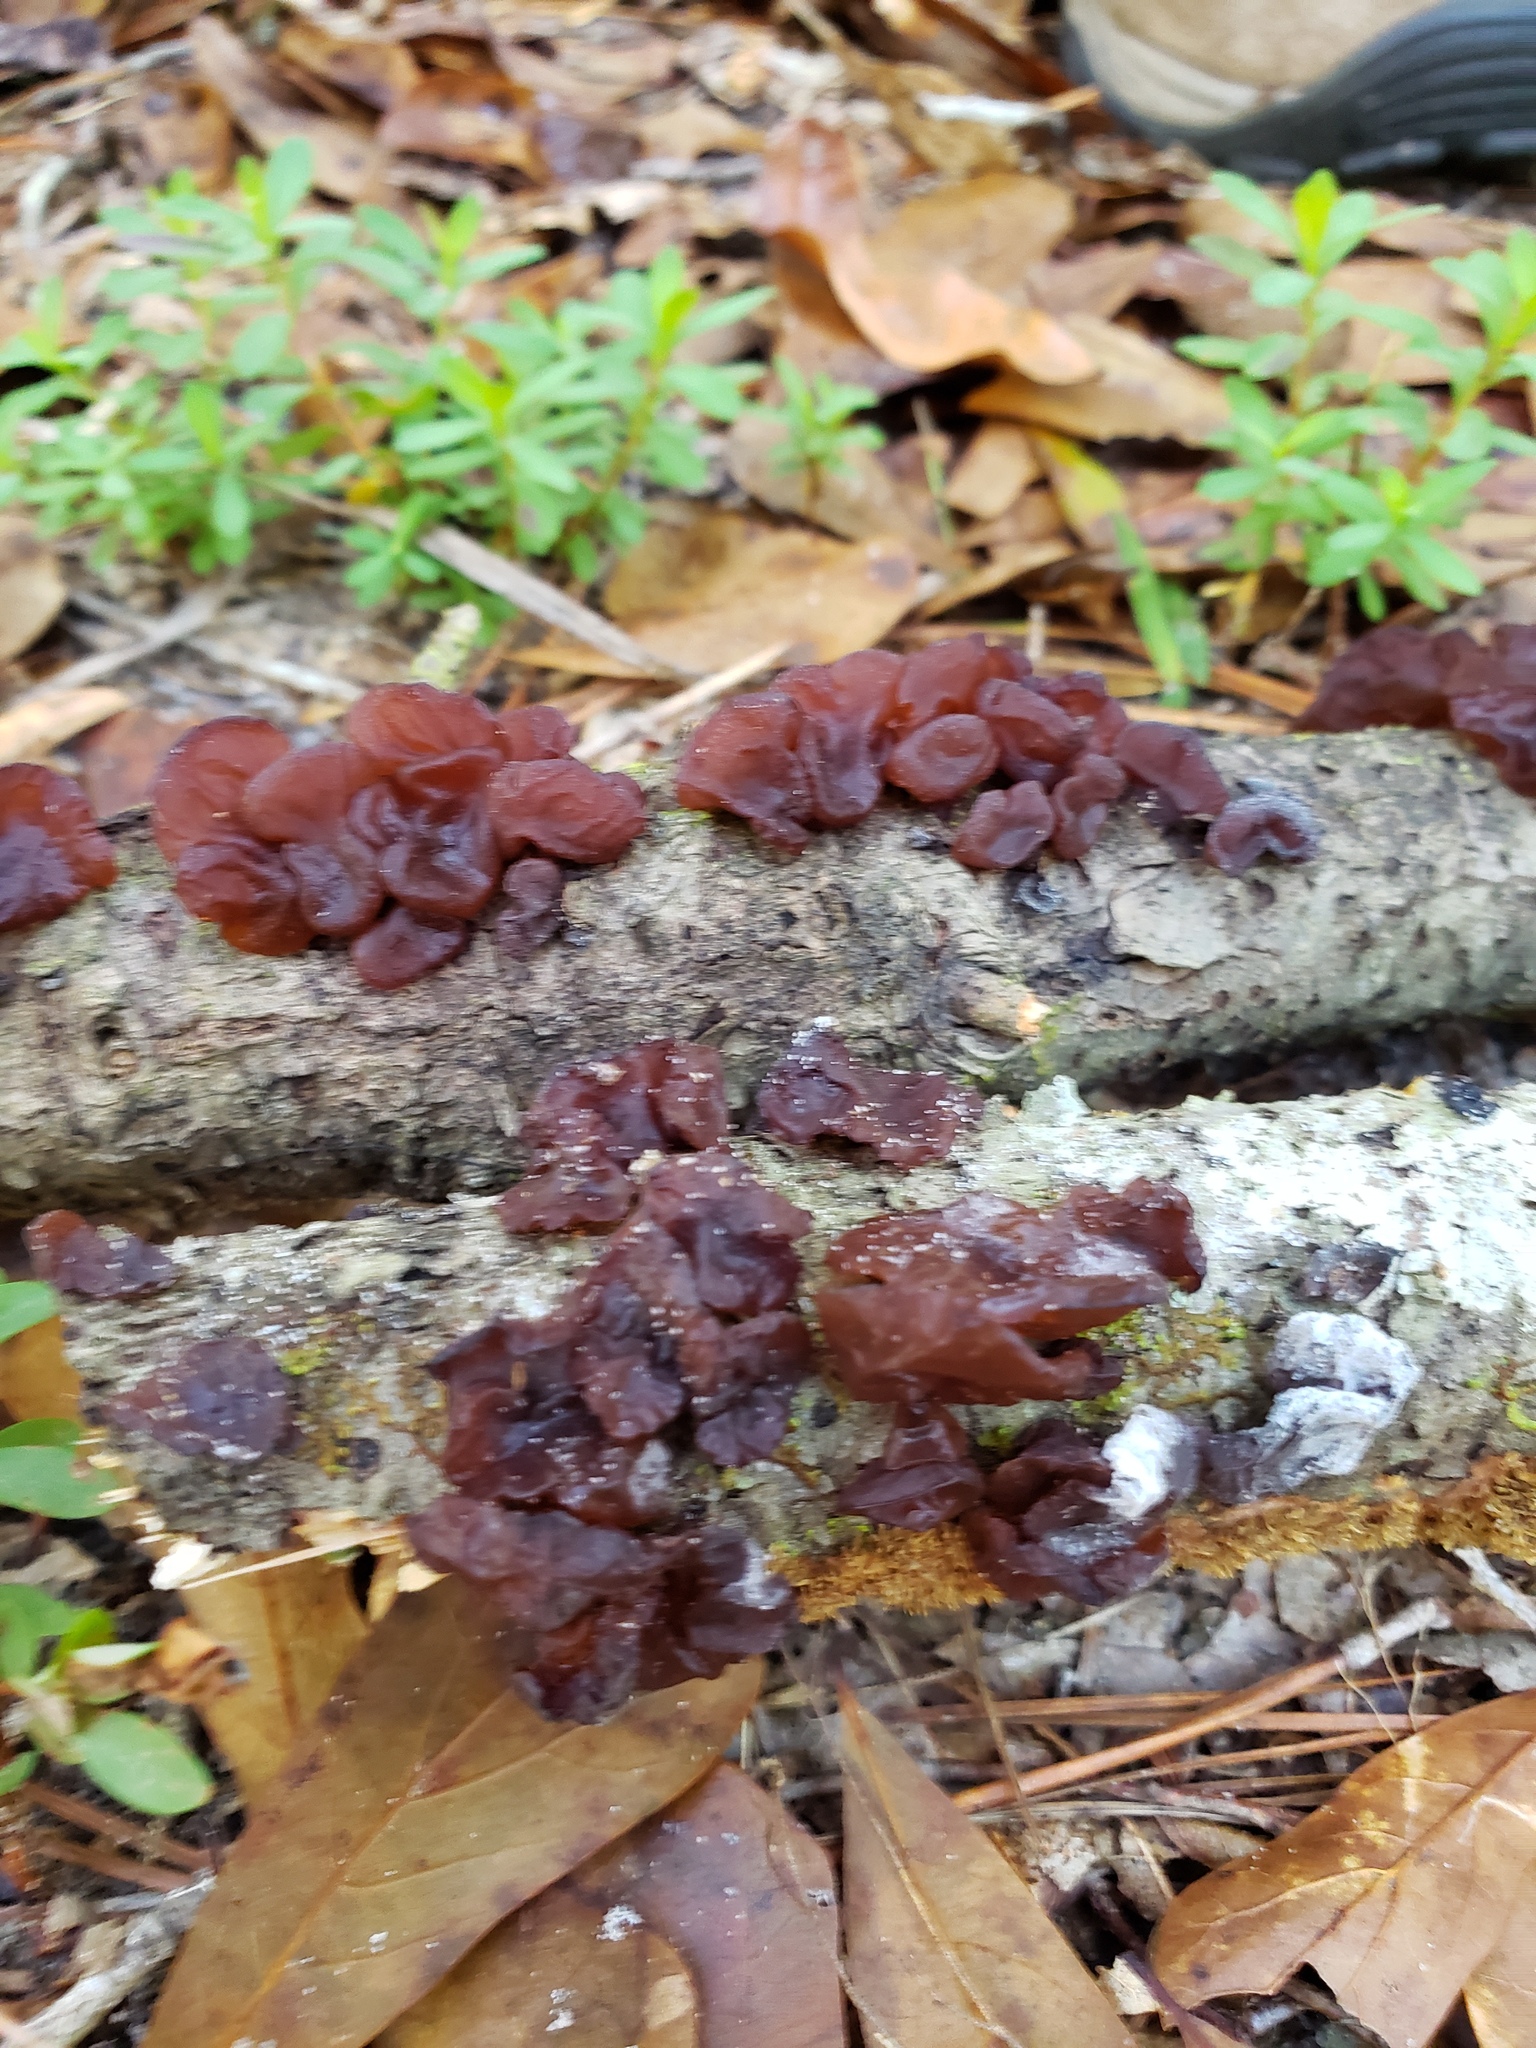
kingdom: Fungi
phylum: Basidiomycota
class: Agaricomycetes
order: Auriculariales
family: Auriculariaceae
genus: Exidia
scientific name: Exidia
